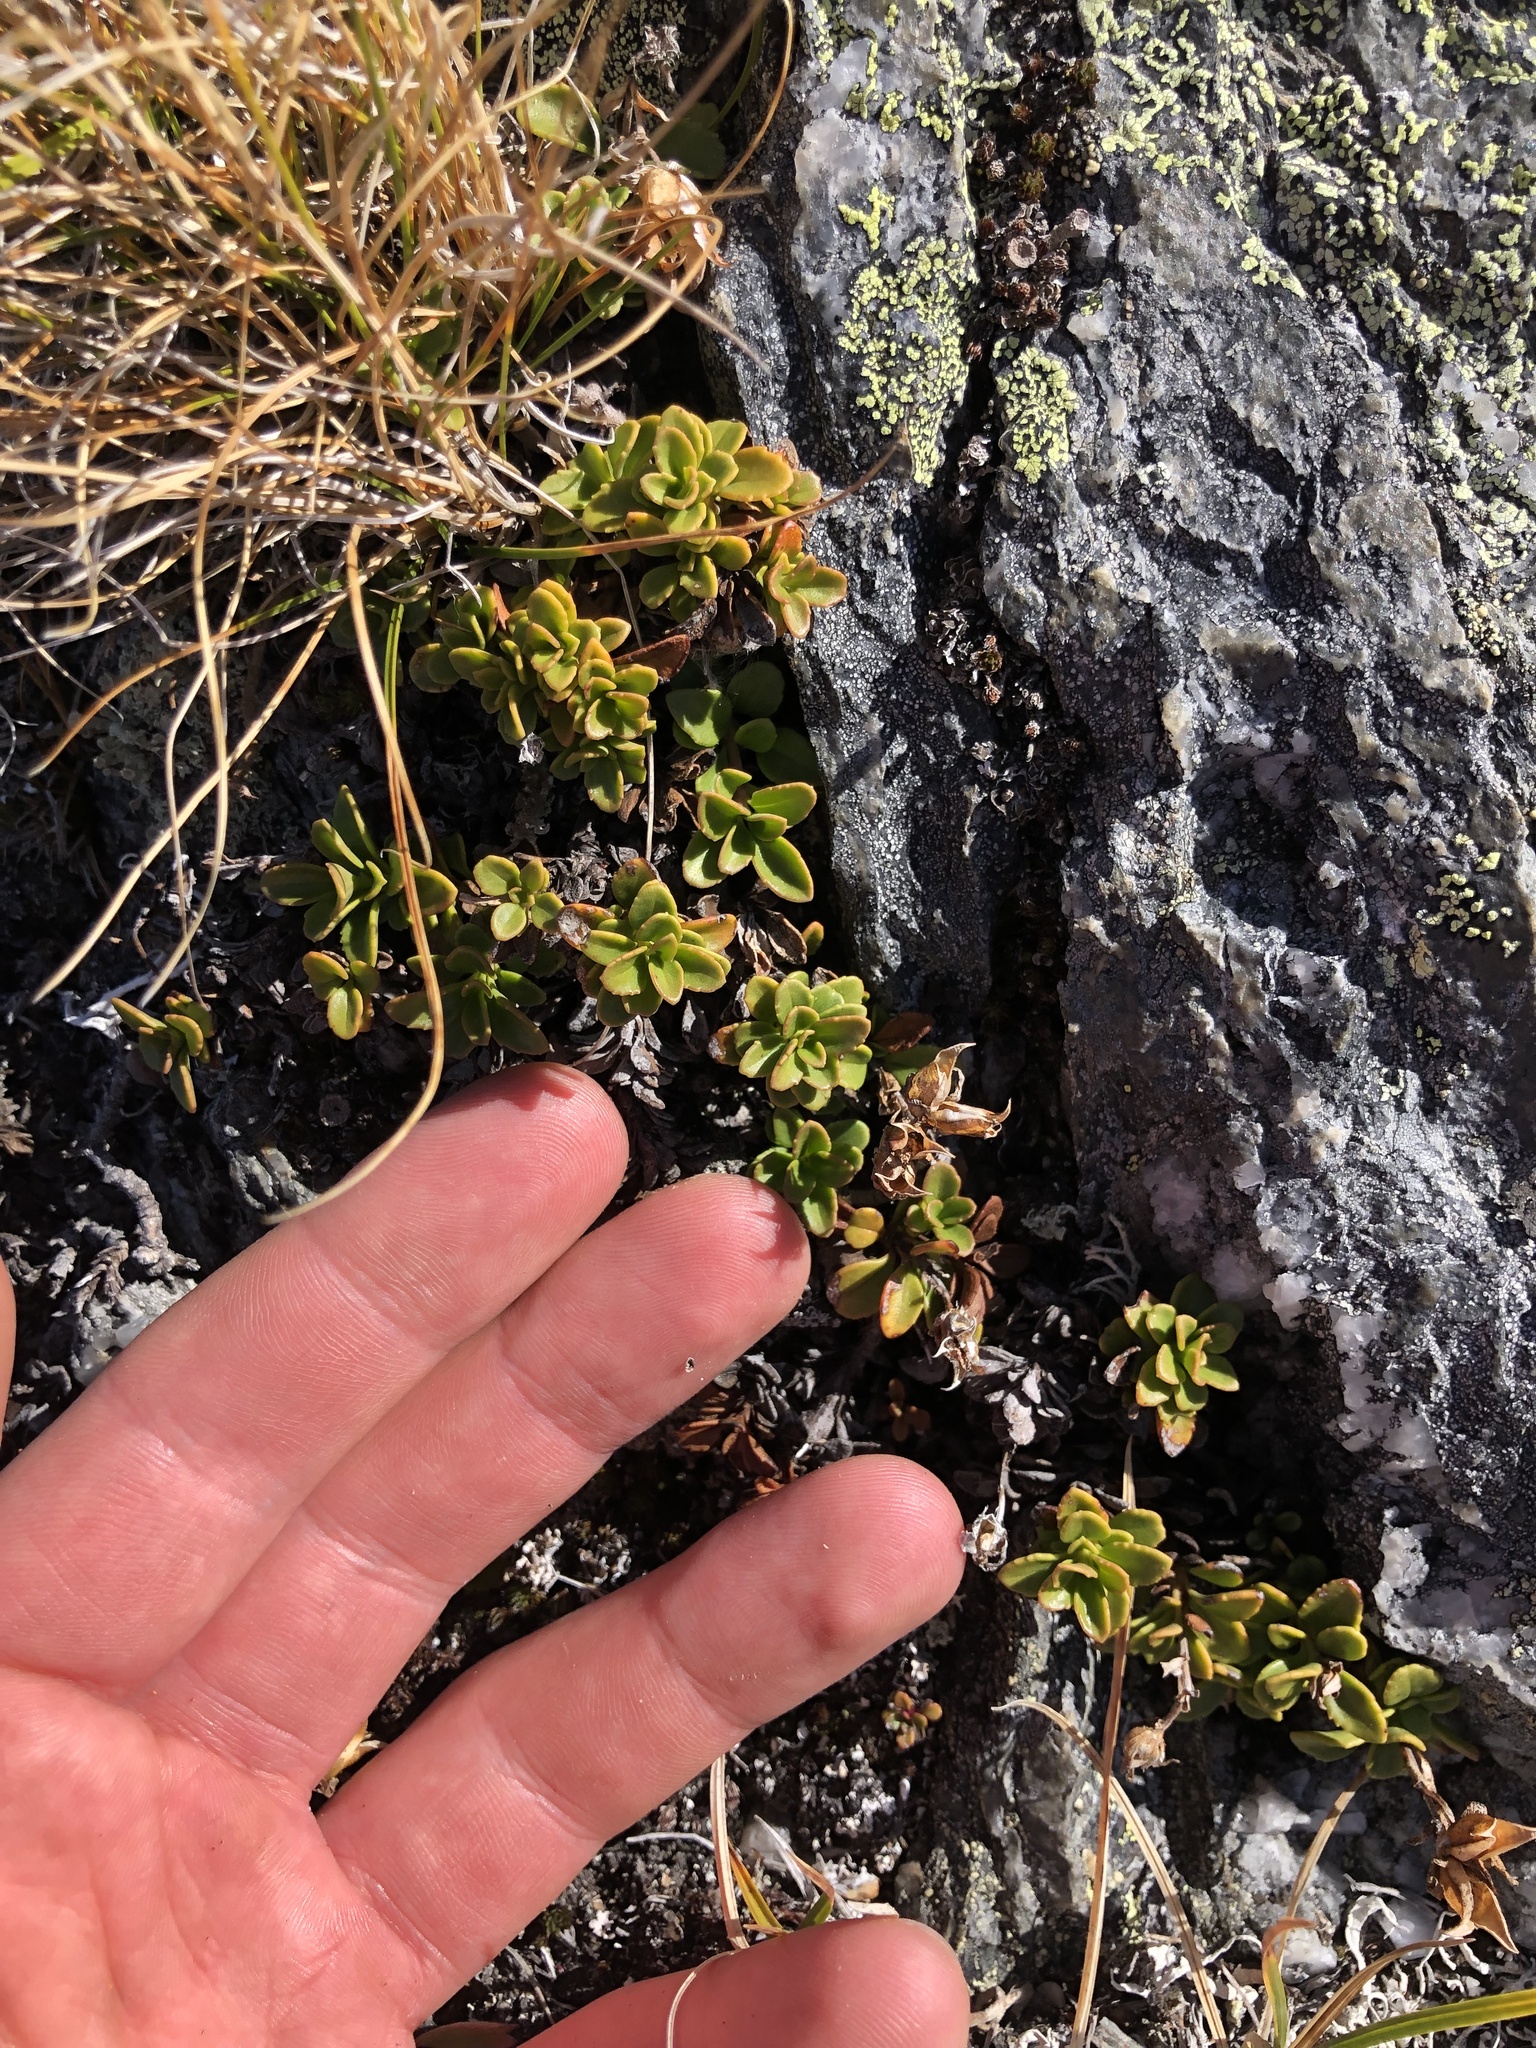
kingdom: Plantae
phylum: Tracheophyta
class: Magnoliopsida
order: Lamiales
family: Plantaginaceae
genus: Penstemon
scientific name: Penstemon davidsonii
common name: Davidson's penstemon
